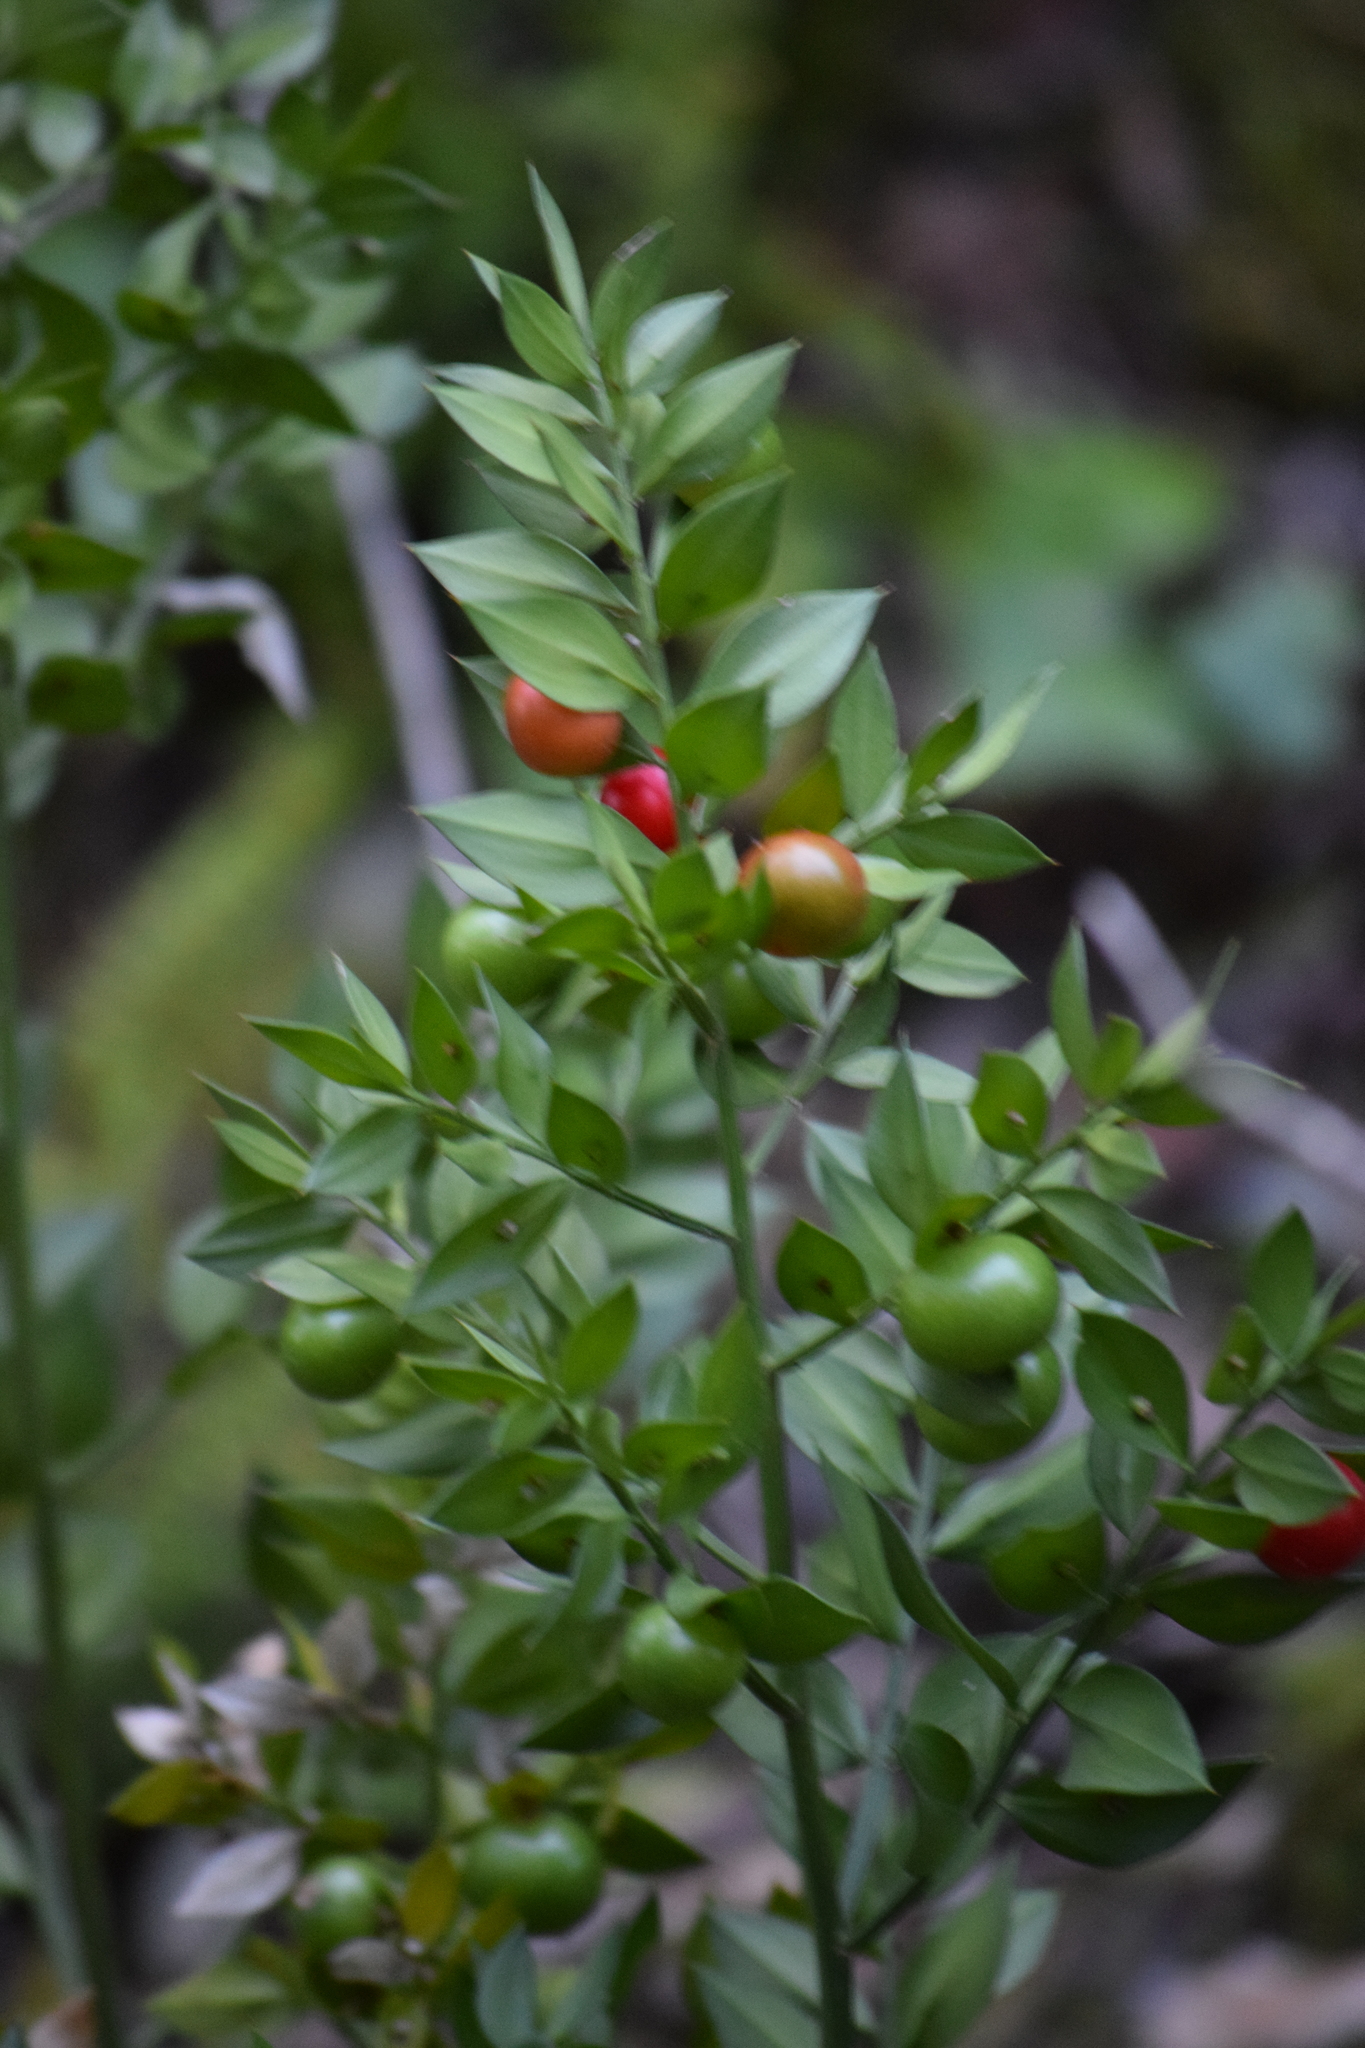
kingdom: Plantae
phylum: Tracheophyta
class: Liliopsida
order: Asparagales
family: Asparagaceae
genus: Ruscus
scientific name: Ruscus aculeatus
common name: Butcher's-broom
